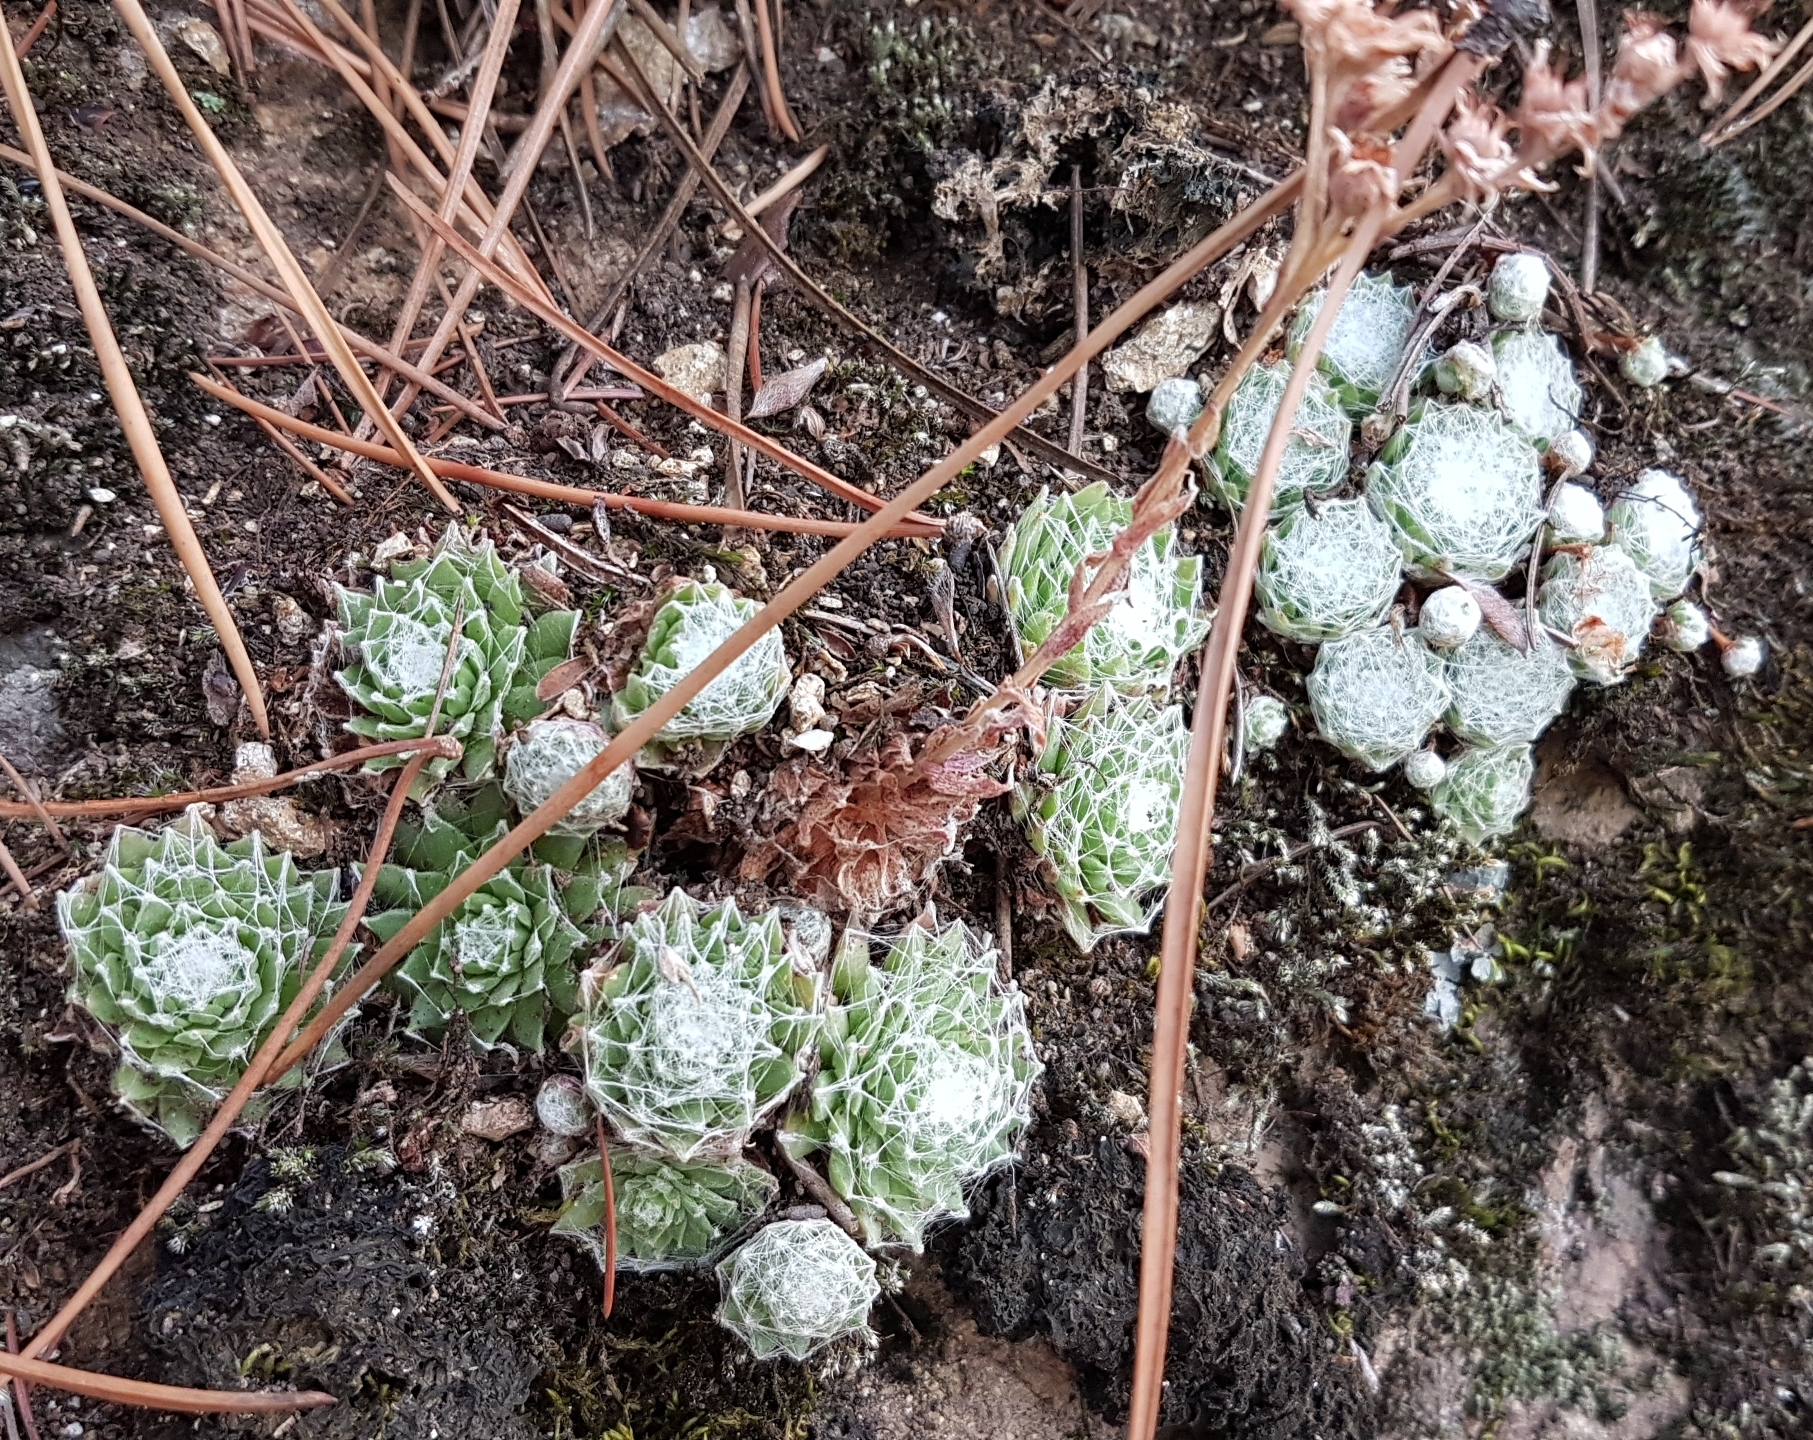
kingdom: Plantae
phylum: Tracheophyta
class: Magnoliopsida
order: Saxifragales
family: Crassulaceae
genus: Sempervivum
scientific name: Sempervivum arachnoideum
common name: Cobweb house-leek
